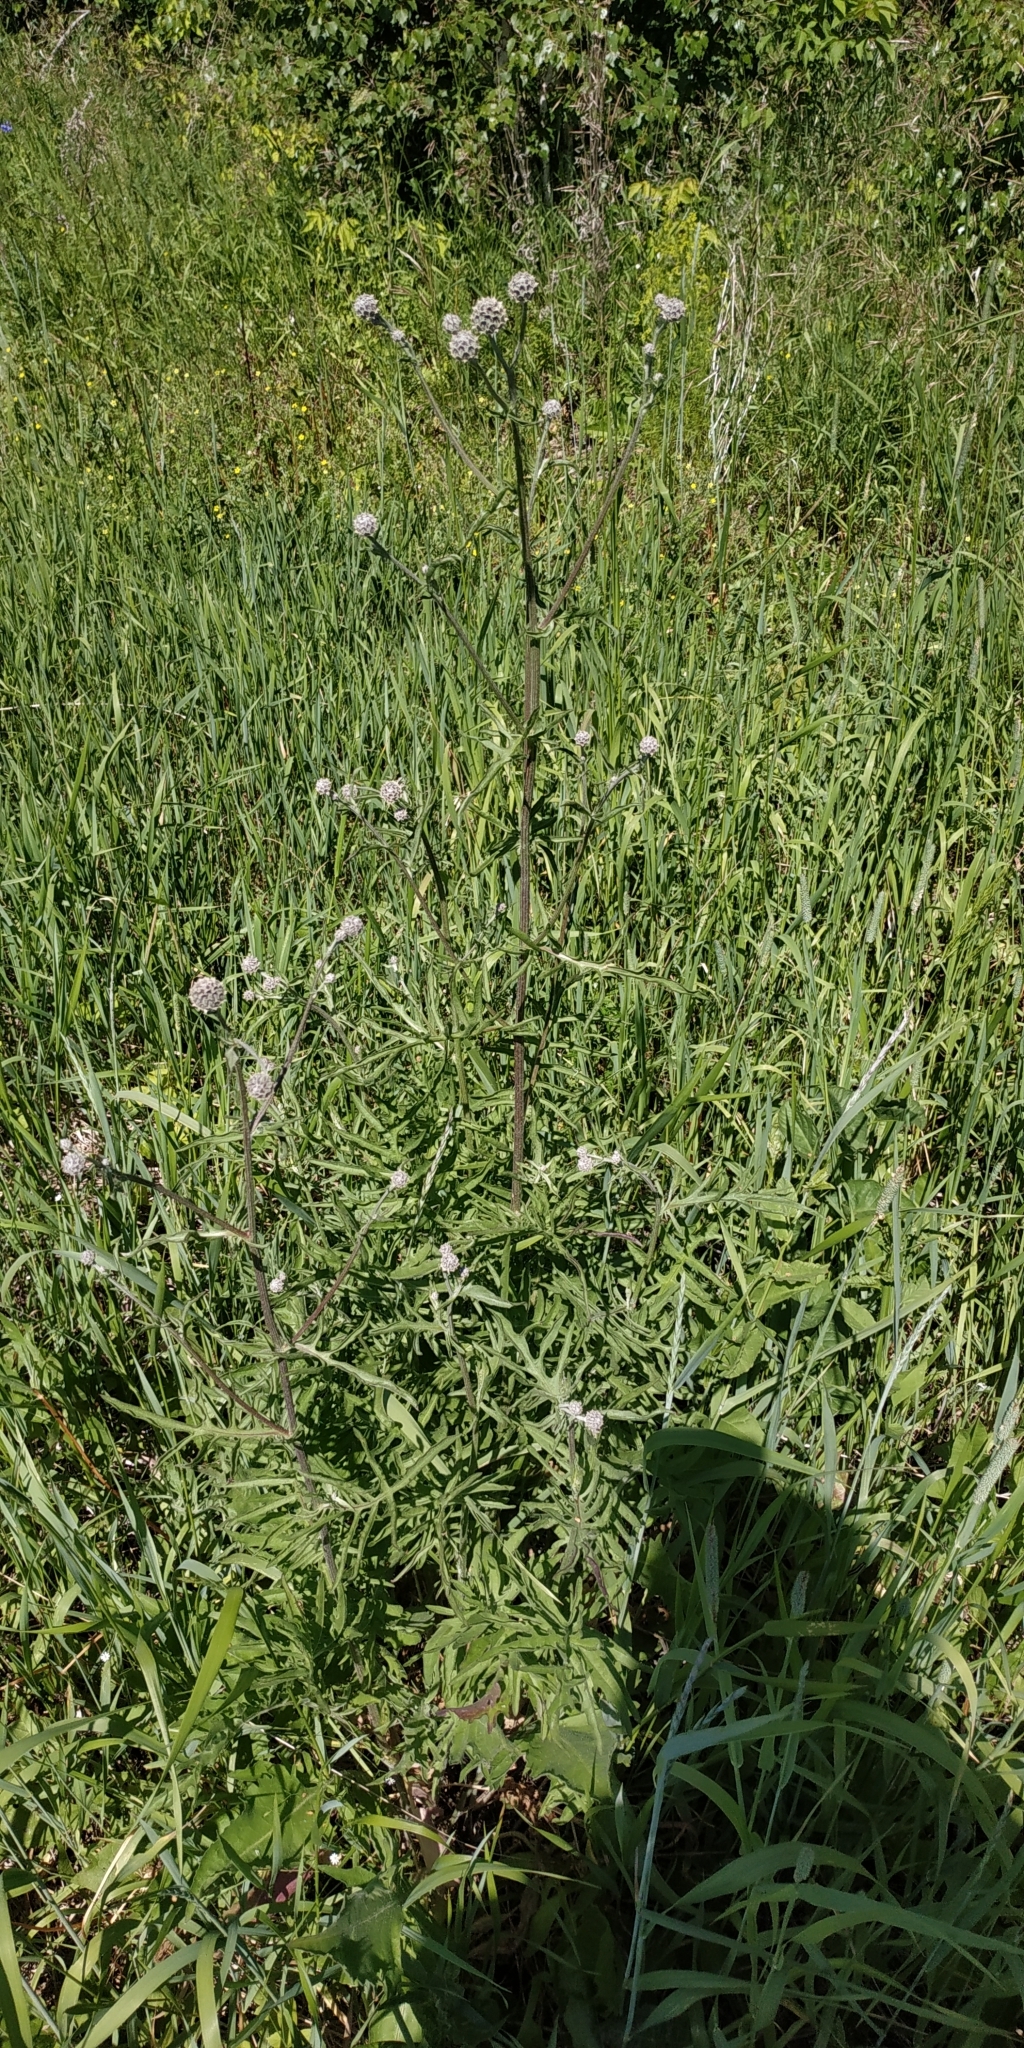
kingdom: Plantae
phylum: Tracheophyta
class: Magnoliopsida
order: Asterales
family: Asteraceae
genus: Centaurea
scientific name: Centaurea scabiosa
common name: Greater knapweed
